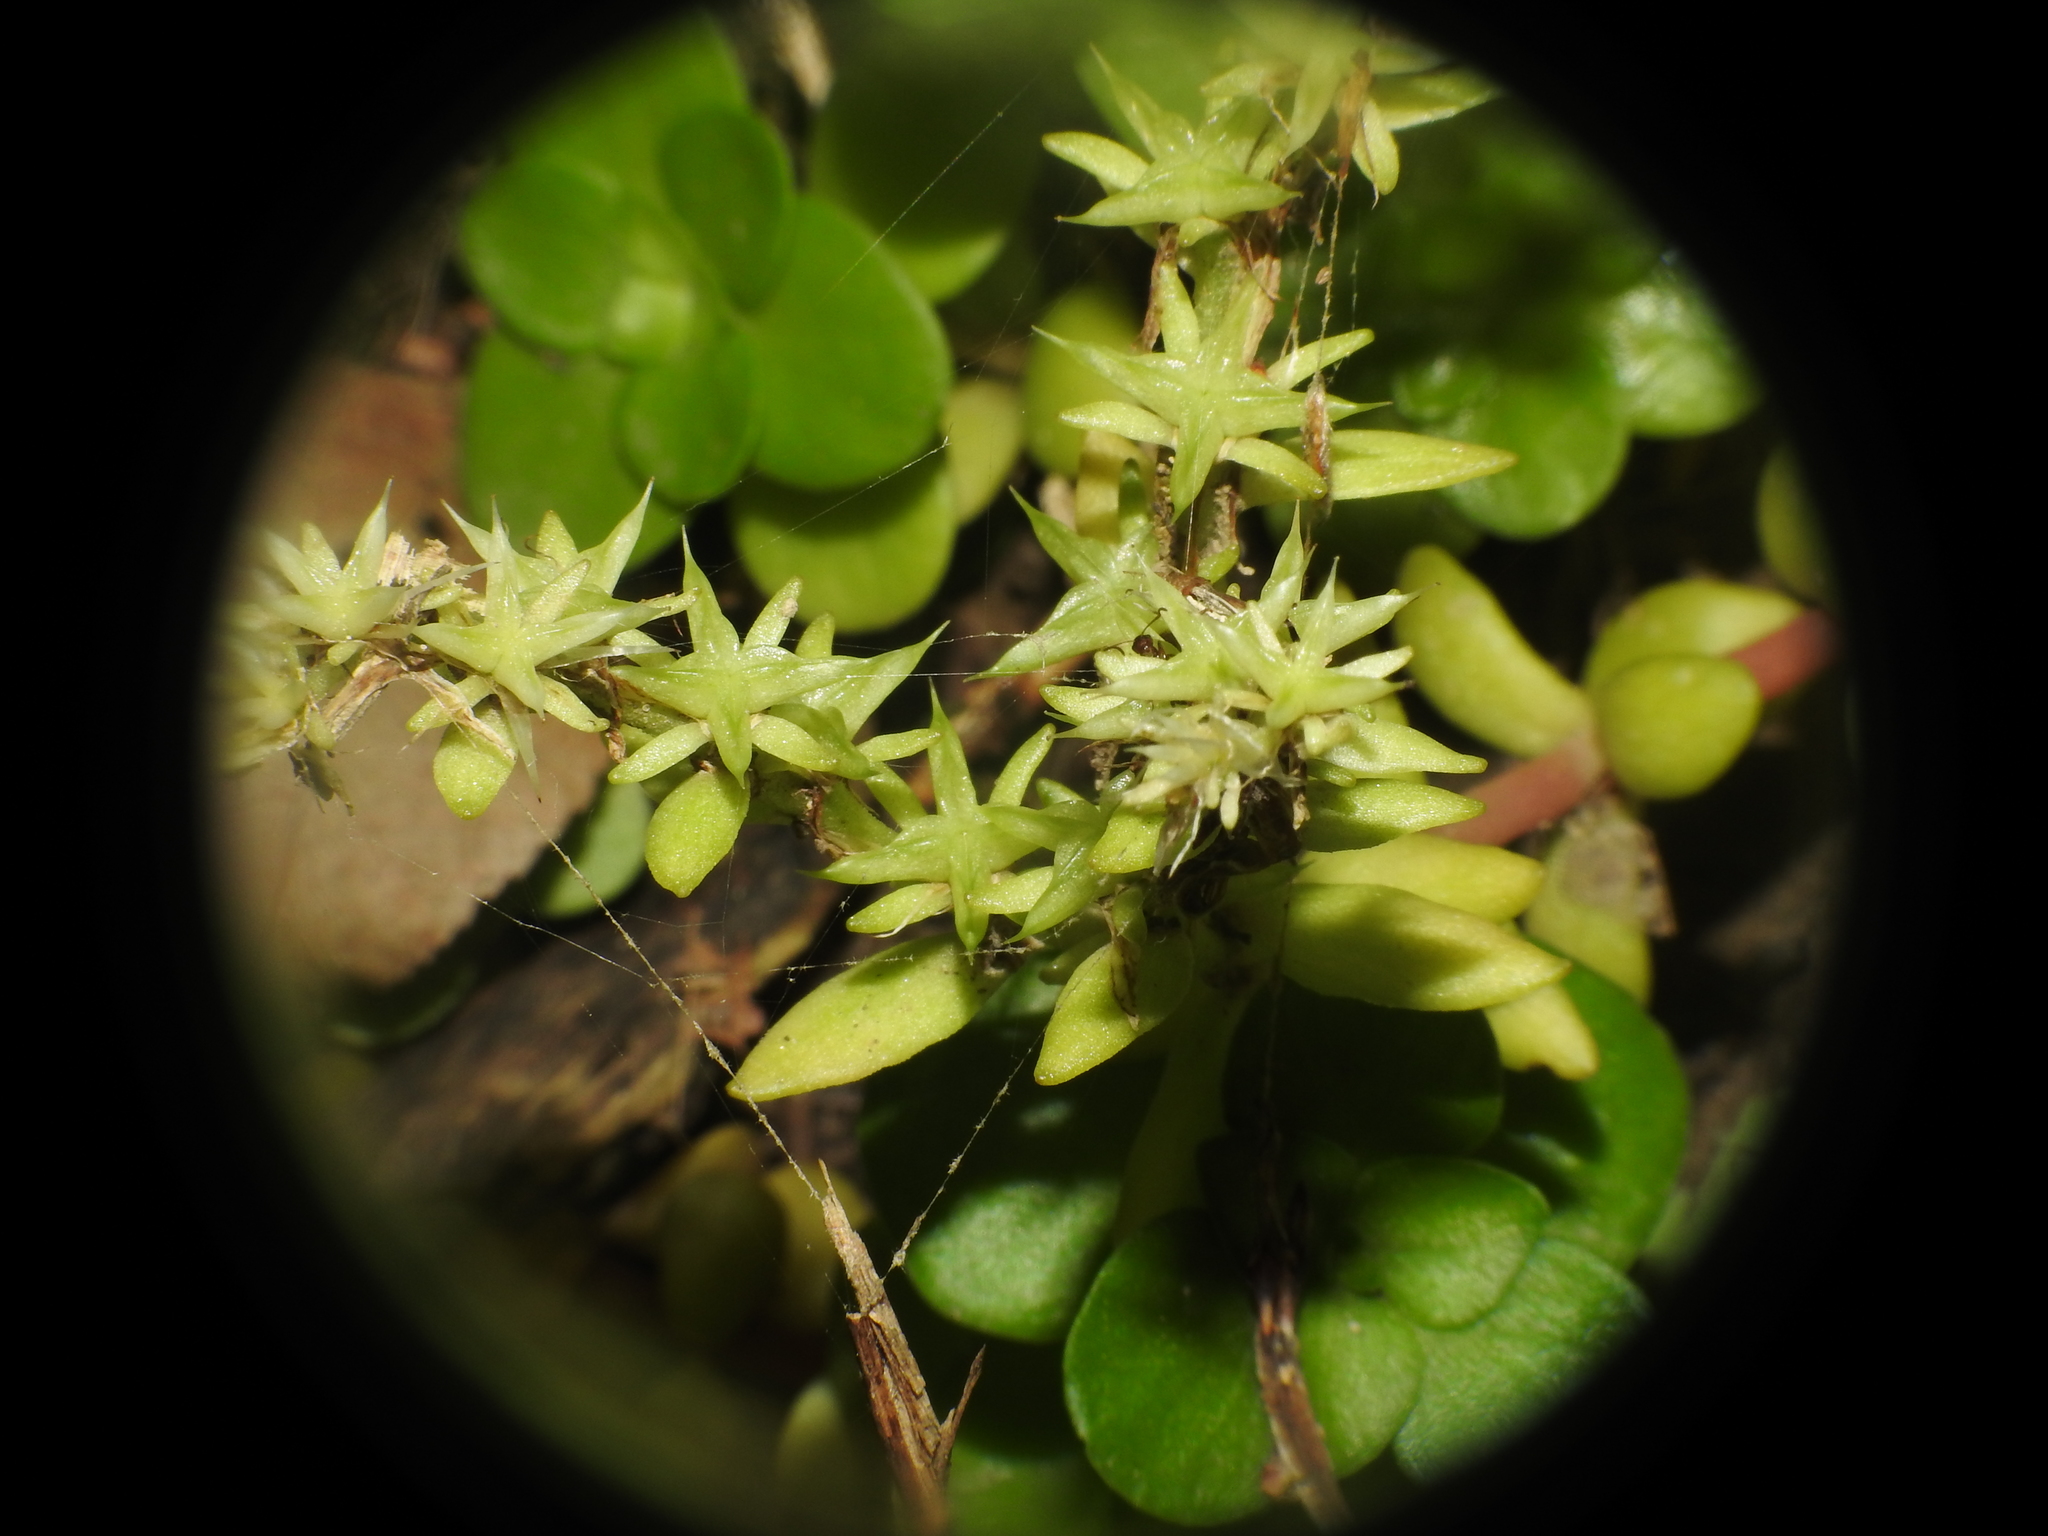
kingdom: Plantae
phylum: Tracheophyta
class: Magnoliopsida
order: Saxifragales
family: Crassulaceae
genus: Sedum
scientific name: Sedum ternatum
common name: Wild stonecrop
